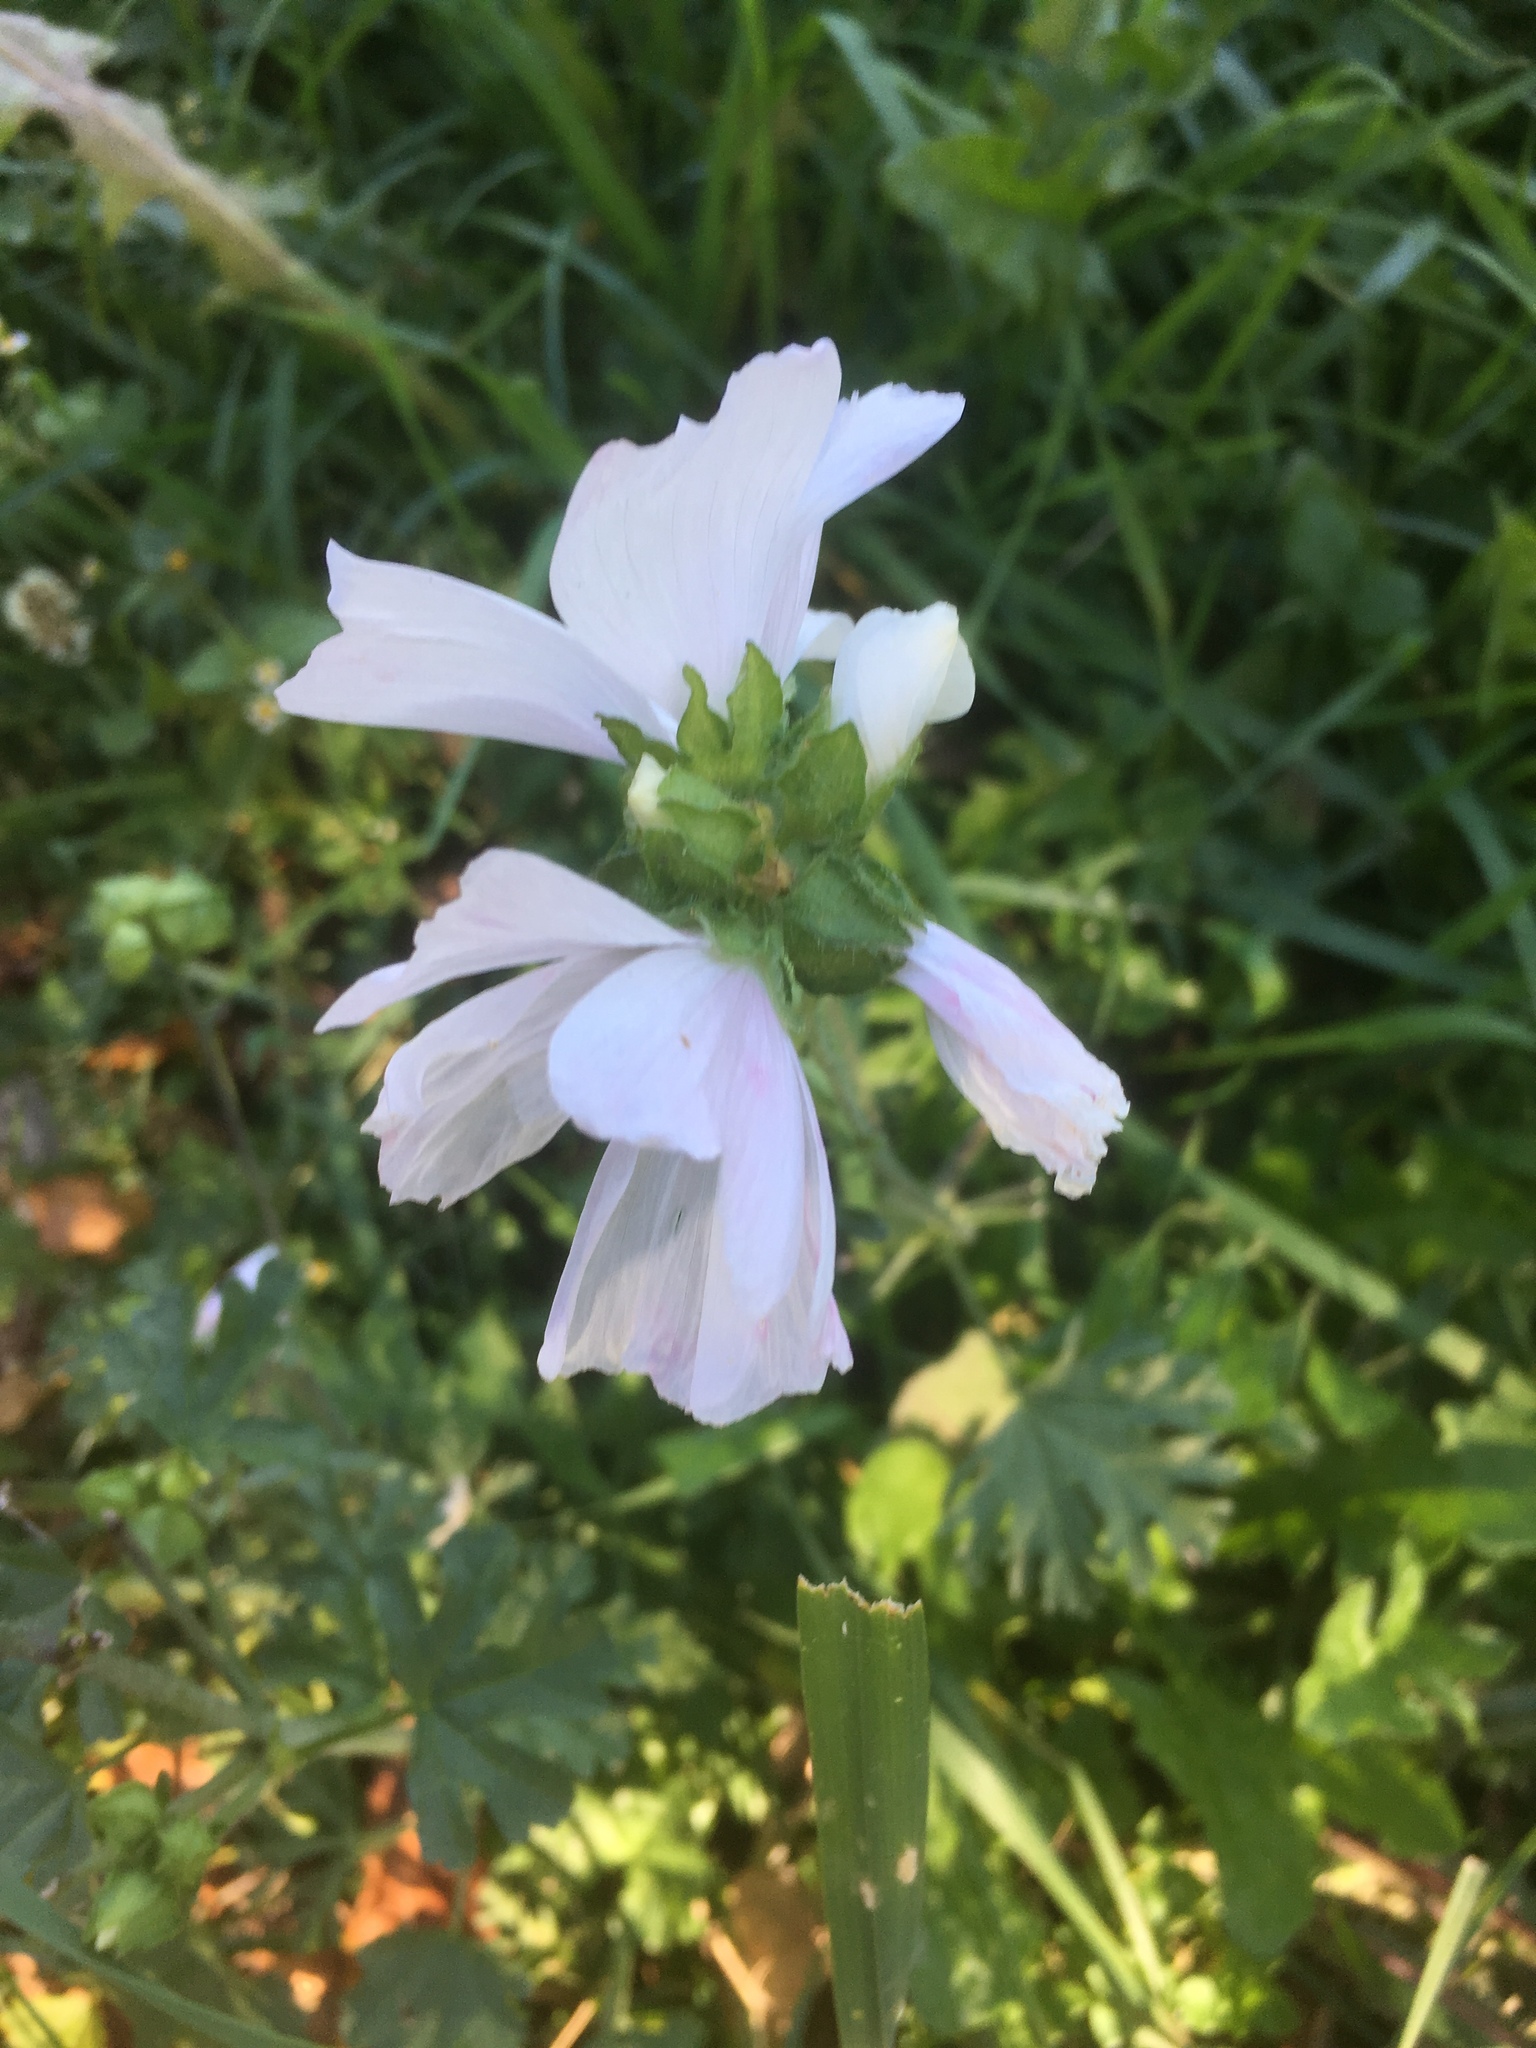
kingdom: Plantae
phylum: Tracheophyta
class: Magnoliopsida
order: Malvales
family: Malvaceae
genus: Malva
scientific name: Malva moschata
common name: Musk mallow
